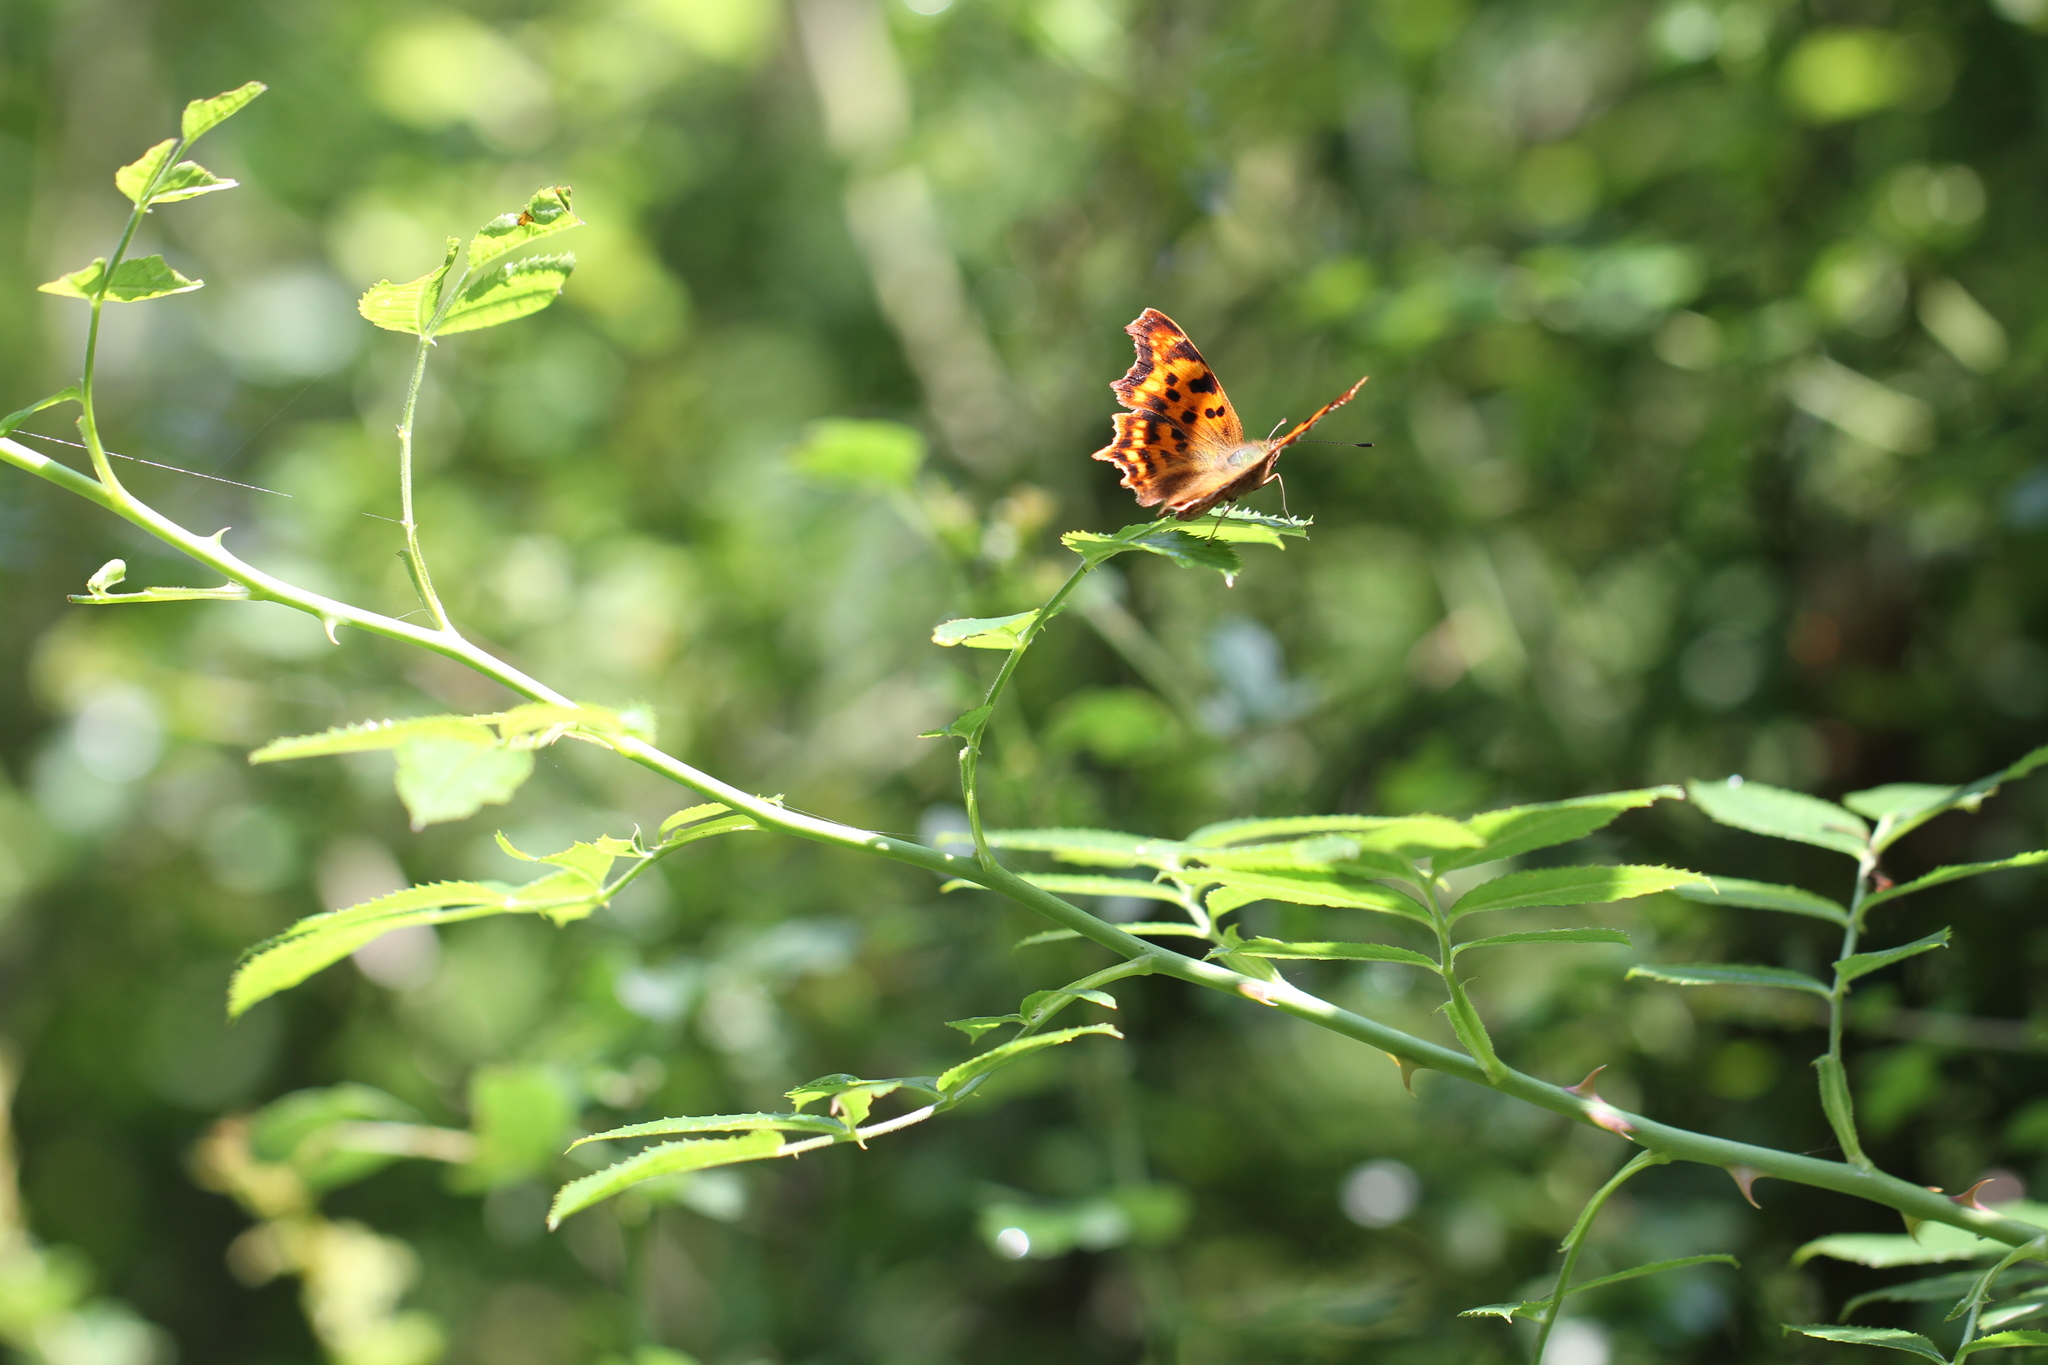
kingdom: Animalia
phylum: Arthropoda
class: Insecta
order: Lepidoptera
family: Nymphalidae
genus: Polygonia
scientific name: Polygonia c-album
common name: Comma
